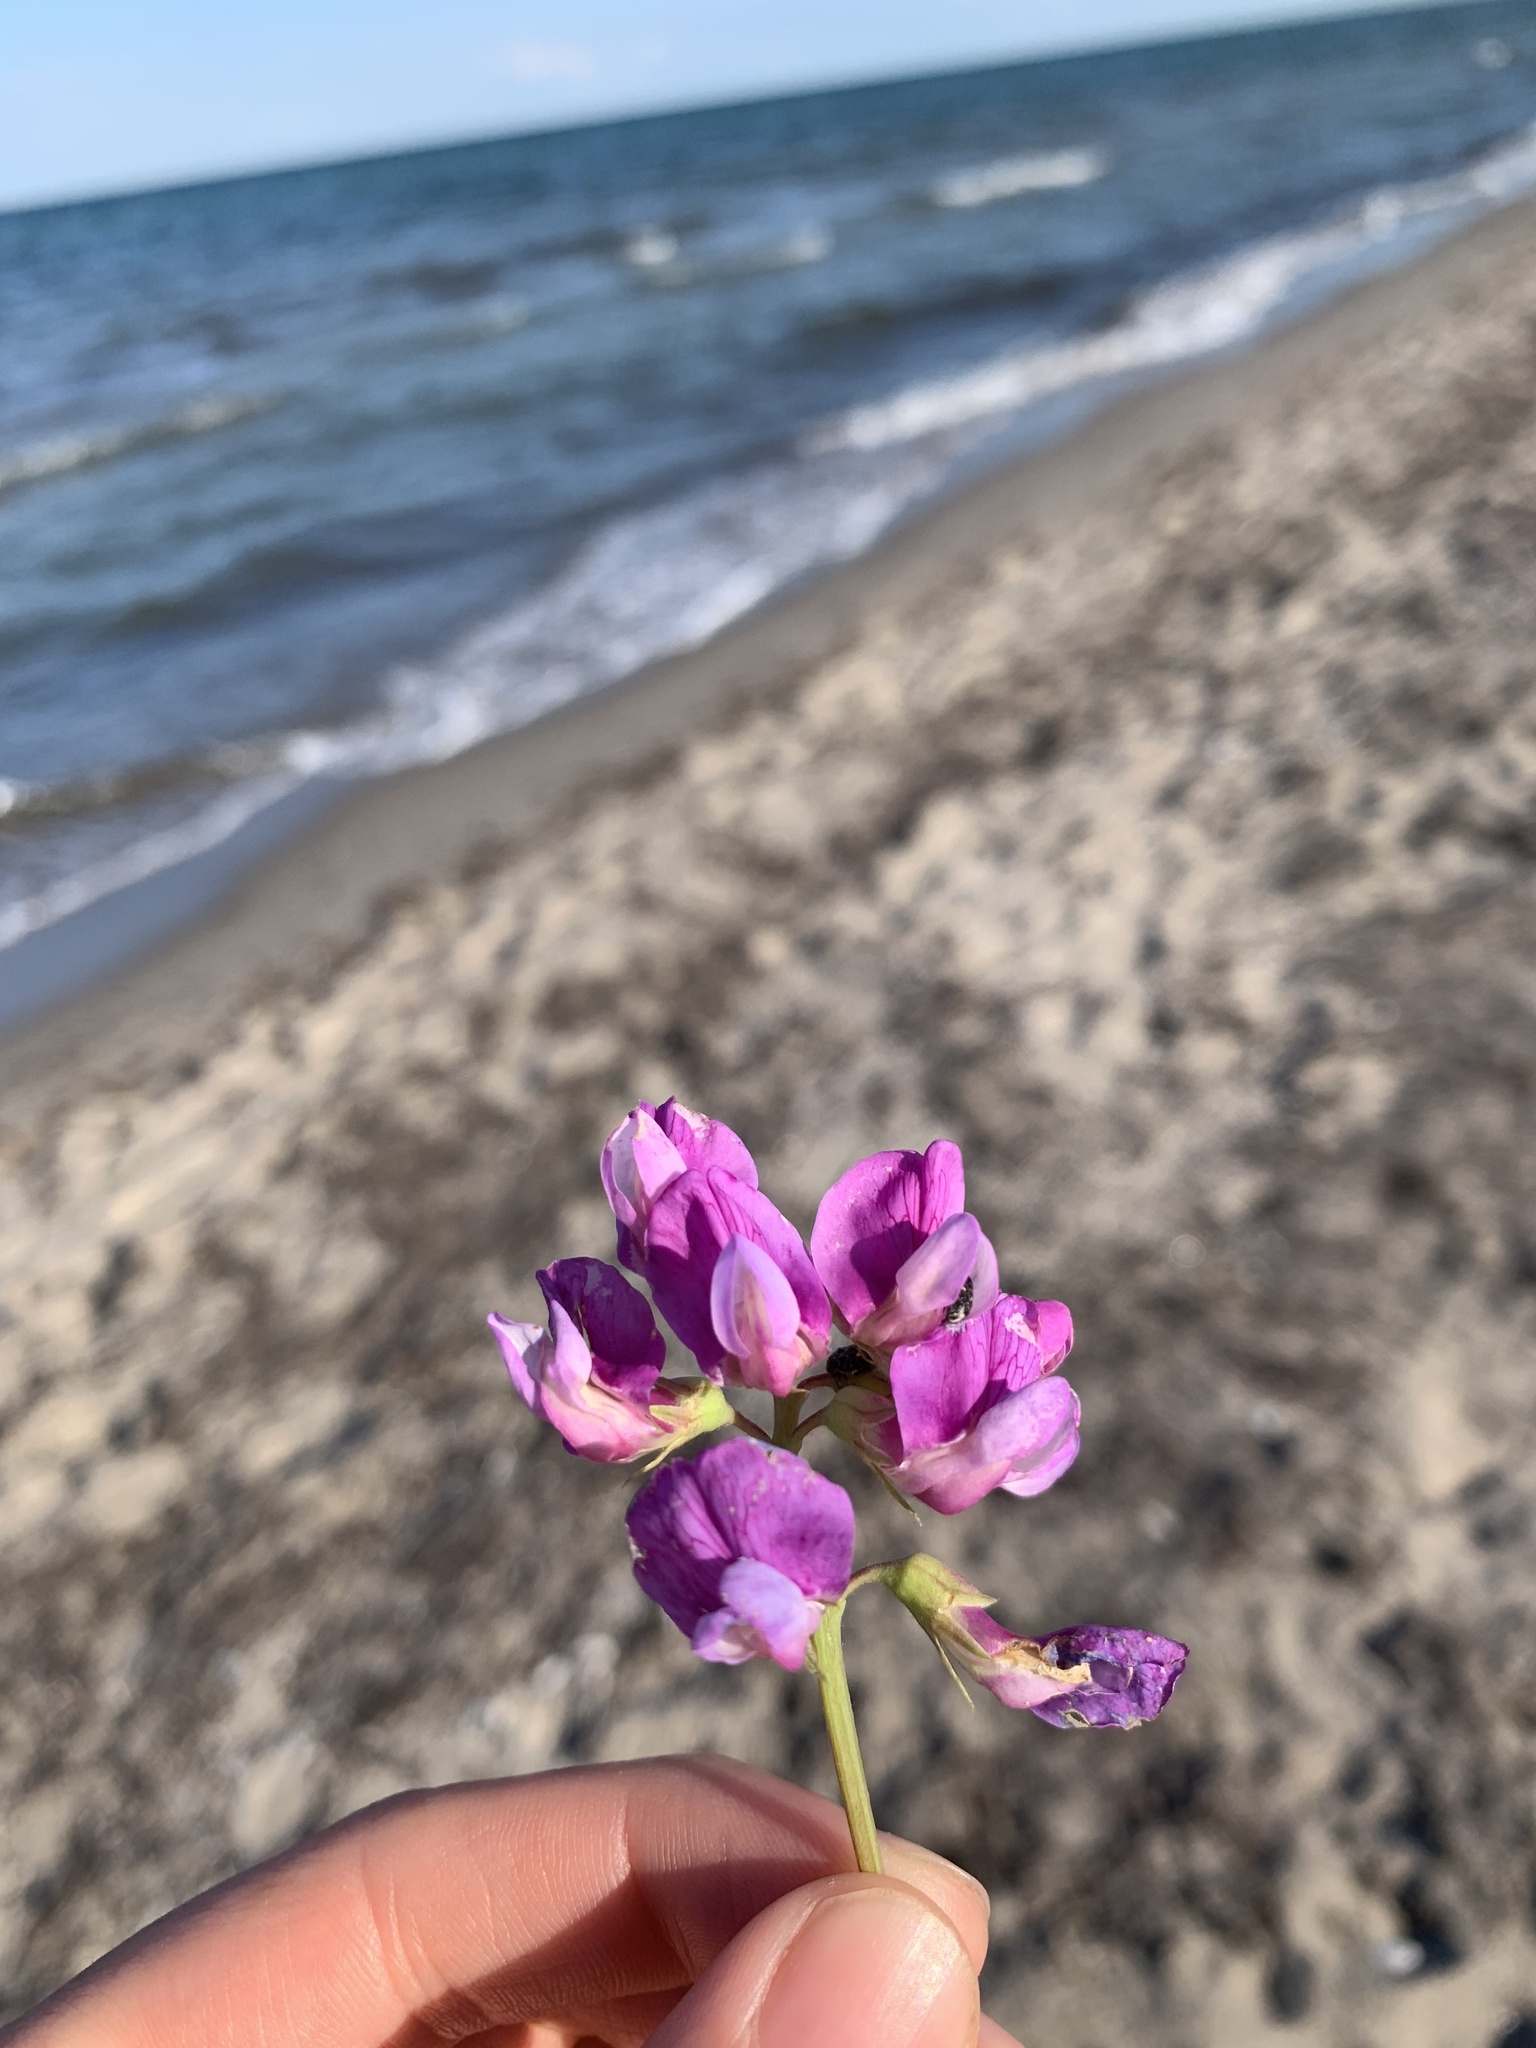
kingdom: Plantae
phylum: Tracheophyta
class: Magnoliopsida
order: Fabales
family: Fabaceae
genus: Lathyrus
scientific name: Lathyrus japonicus
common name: Sea pea
